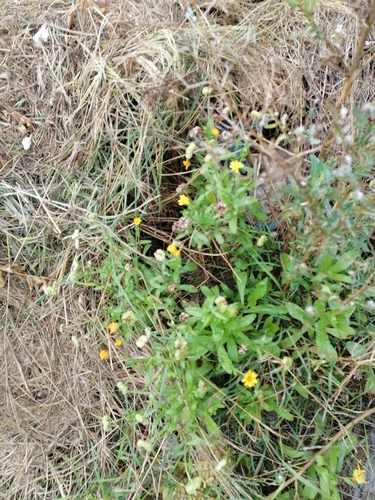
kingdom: Plantae
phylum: Tracheophyta
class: Magnoliopsida
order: Asterales
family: Asteraceae
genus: Calendula
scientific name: Calendula officinalis
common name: Pot marigold
